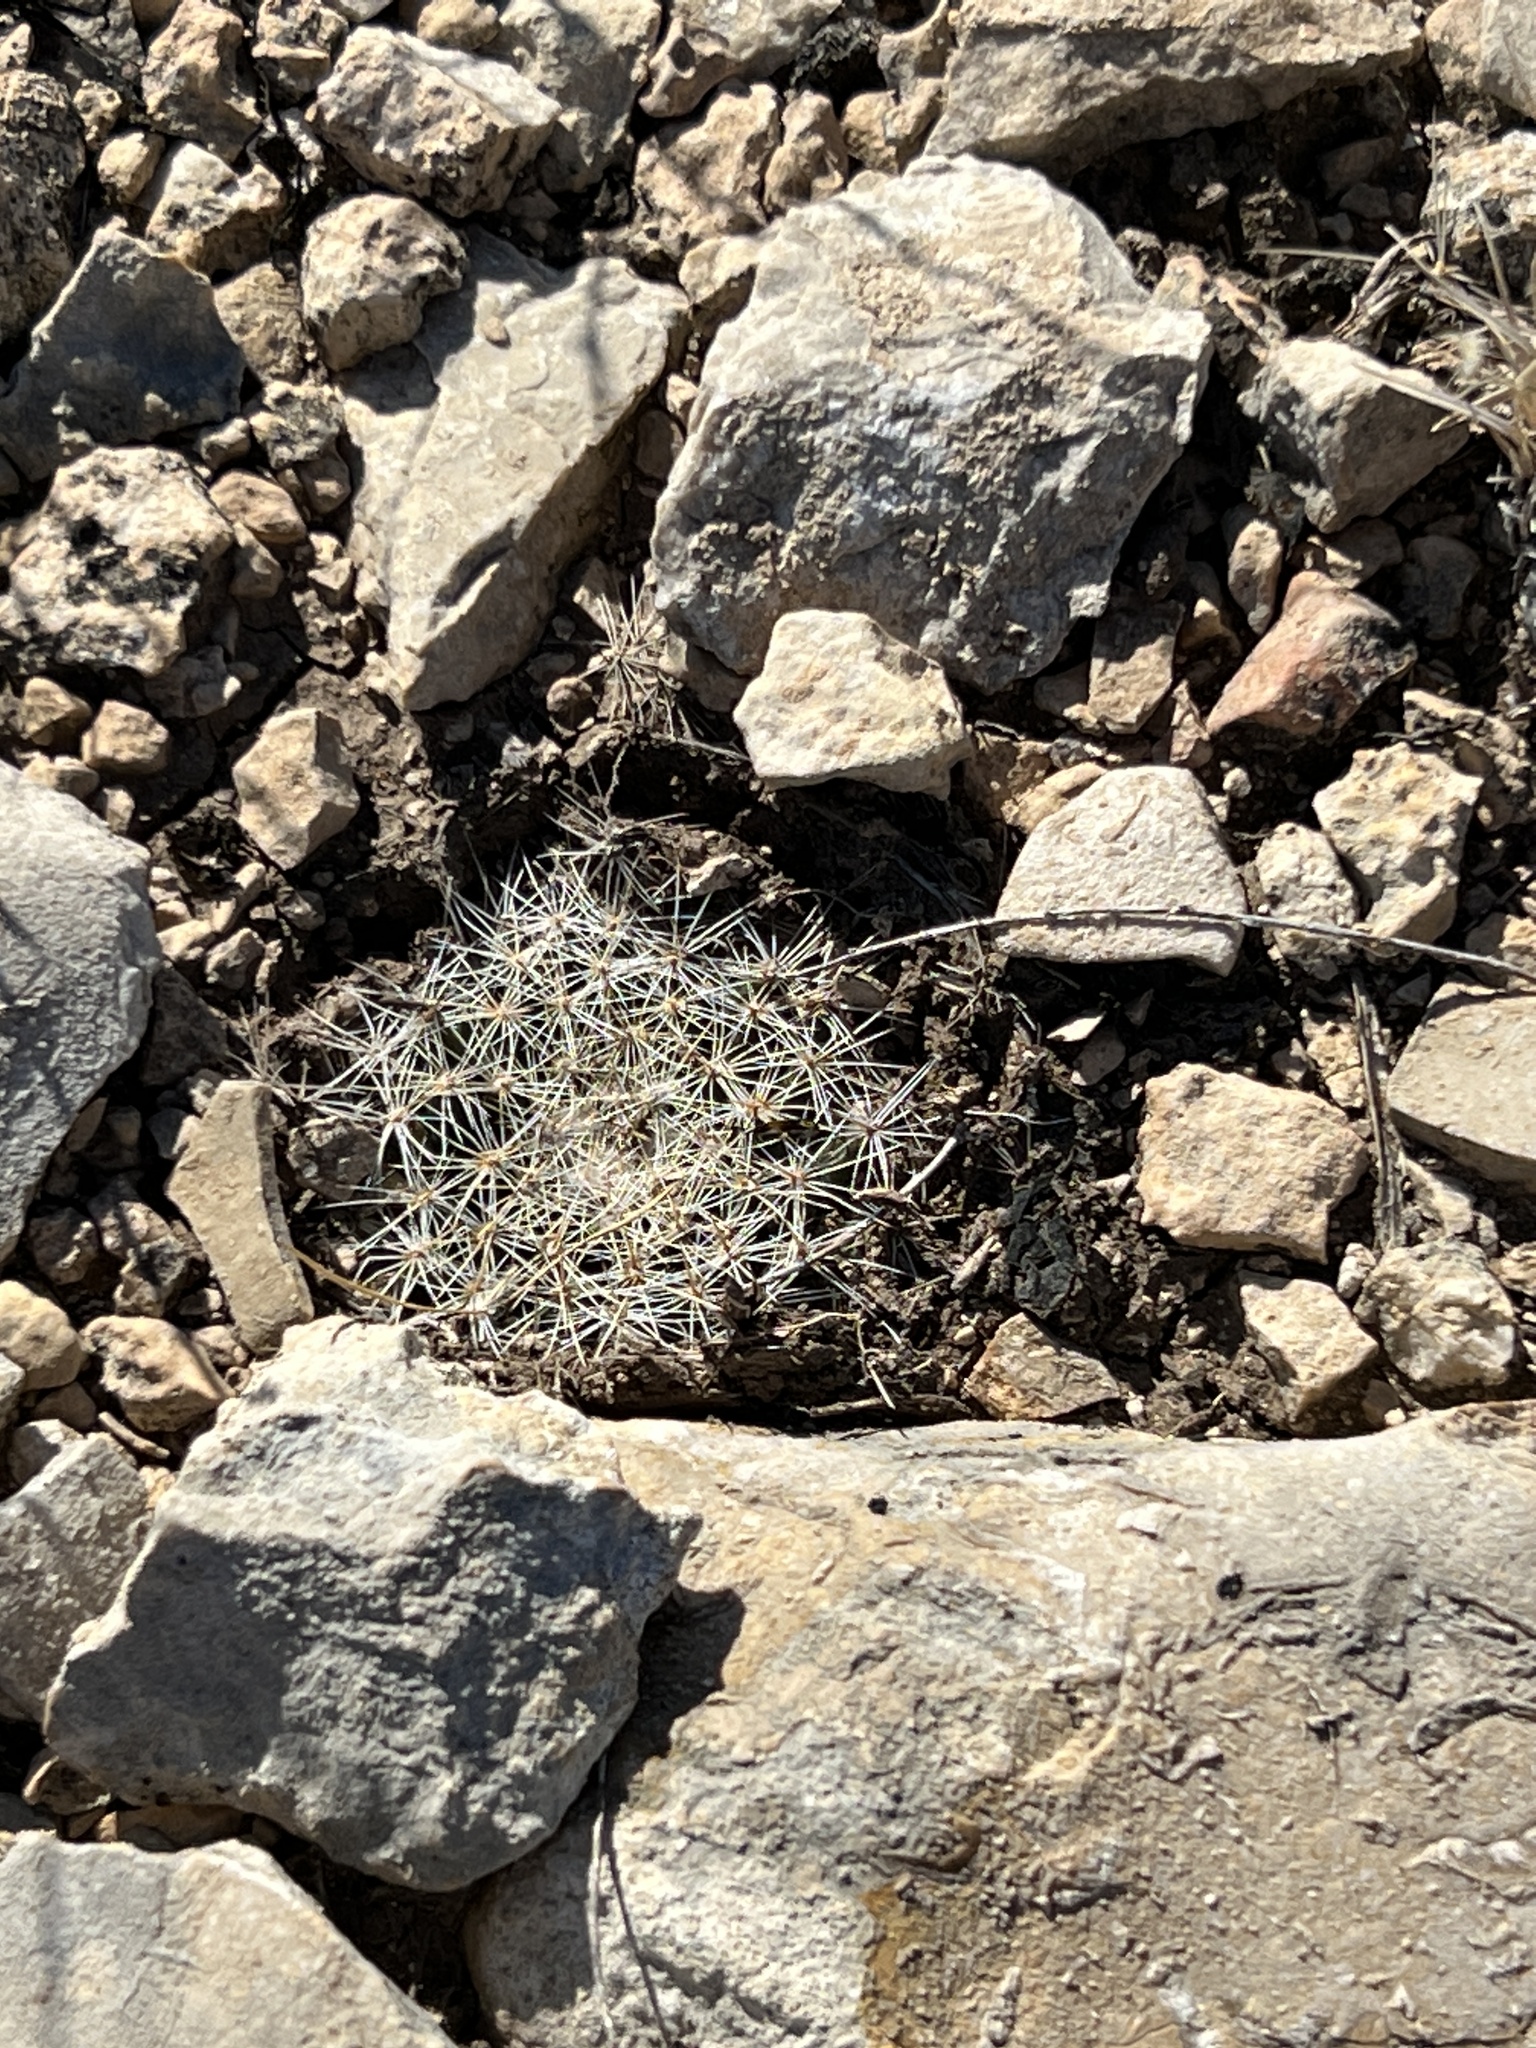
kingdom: Plantae
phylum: Tracheophyta
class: Magnoliopsida
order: Caryophyllales
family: Cactaceae
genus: Mammillaria
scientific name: Mammillaria heyderi
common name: Little nipple cactus
